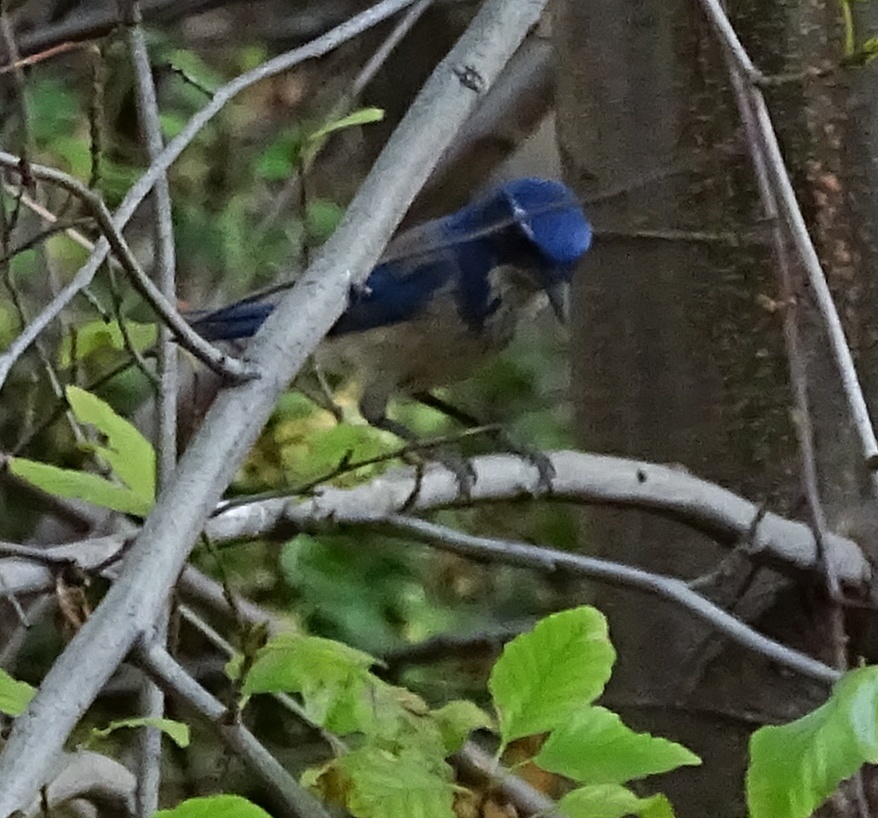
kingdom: Animalia
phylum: Chordata
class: Aves
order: Passeriformes
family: Corvidae
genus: Aphelocoma
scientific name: Aphelocoma californica
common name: California scrub-jay
